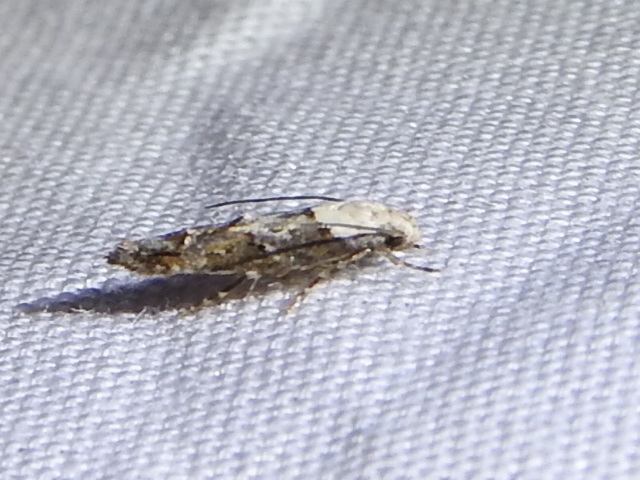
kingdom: Animalia
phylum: Arthropoda
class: Insecta
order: Lepidoptera
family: Momphidae
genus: Mompha
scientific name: Mompha albocapitella
